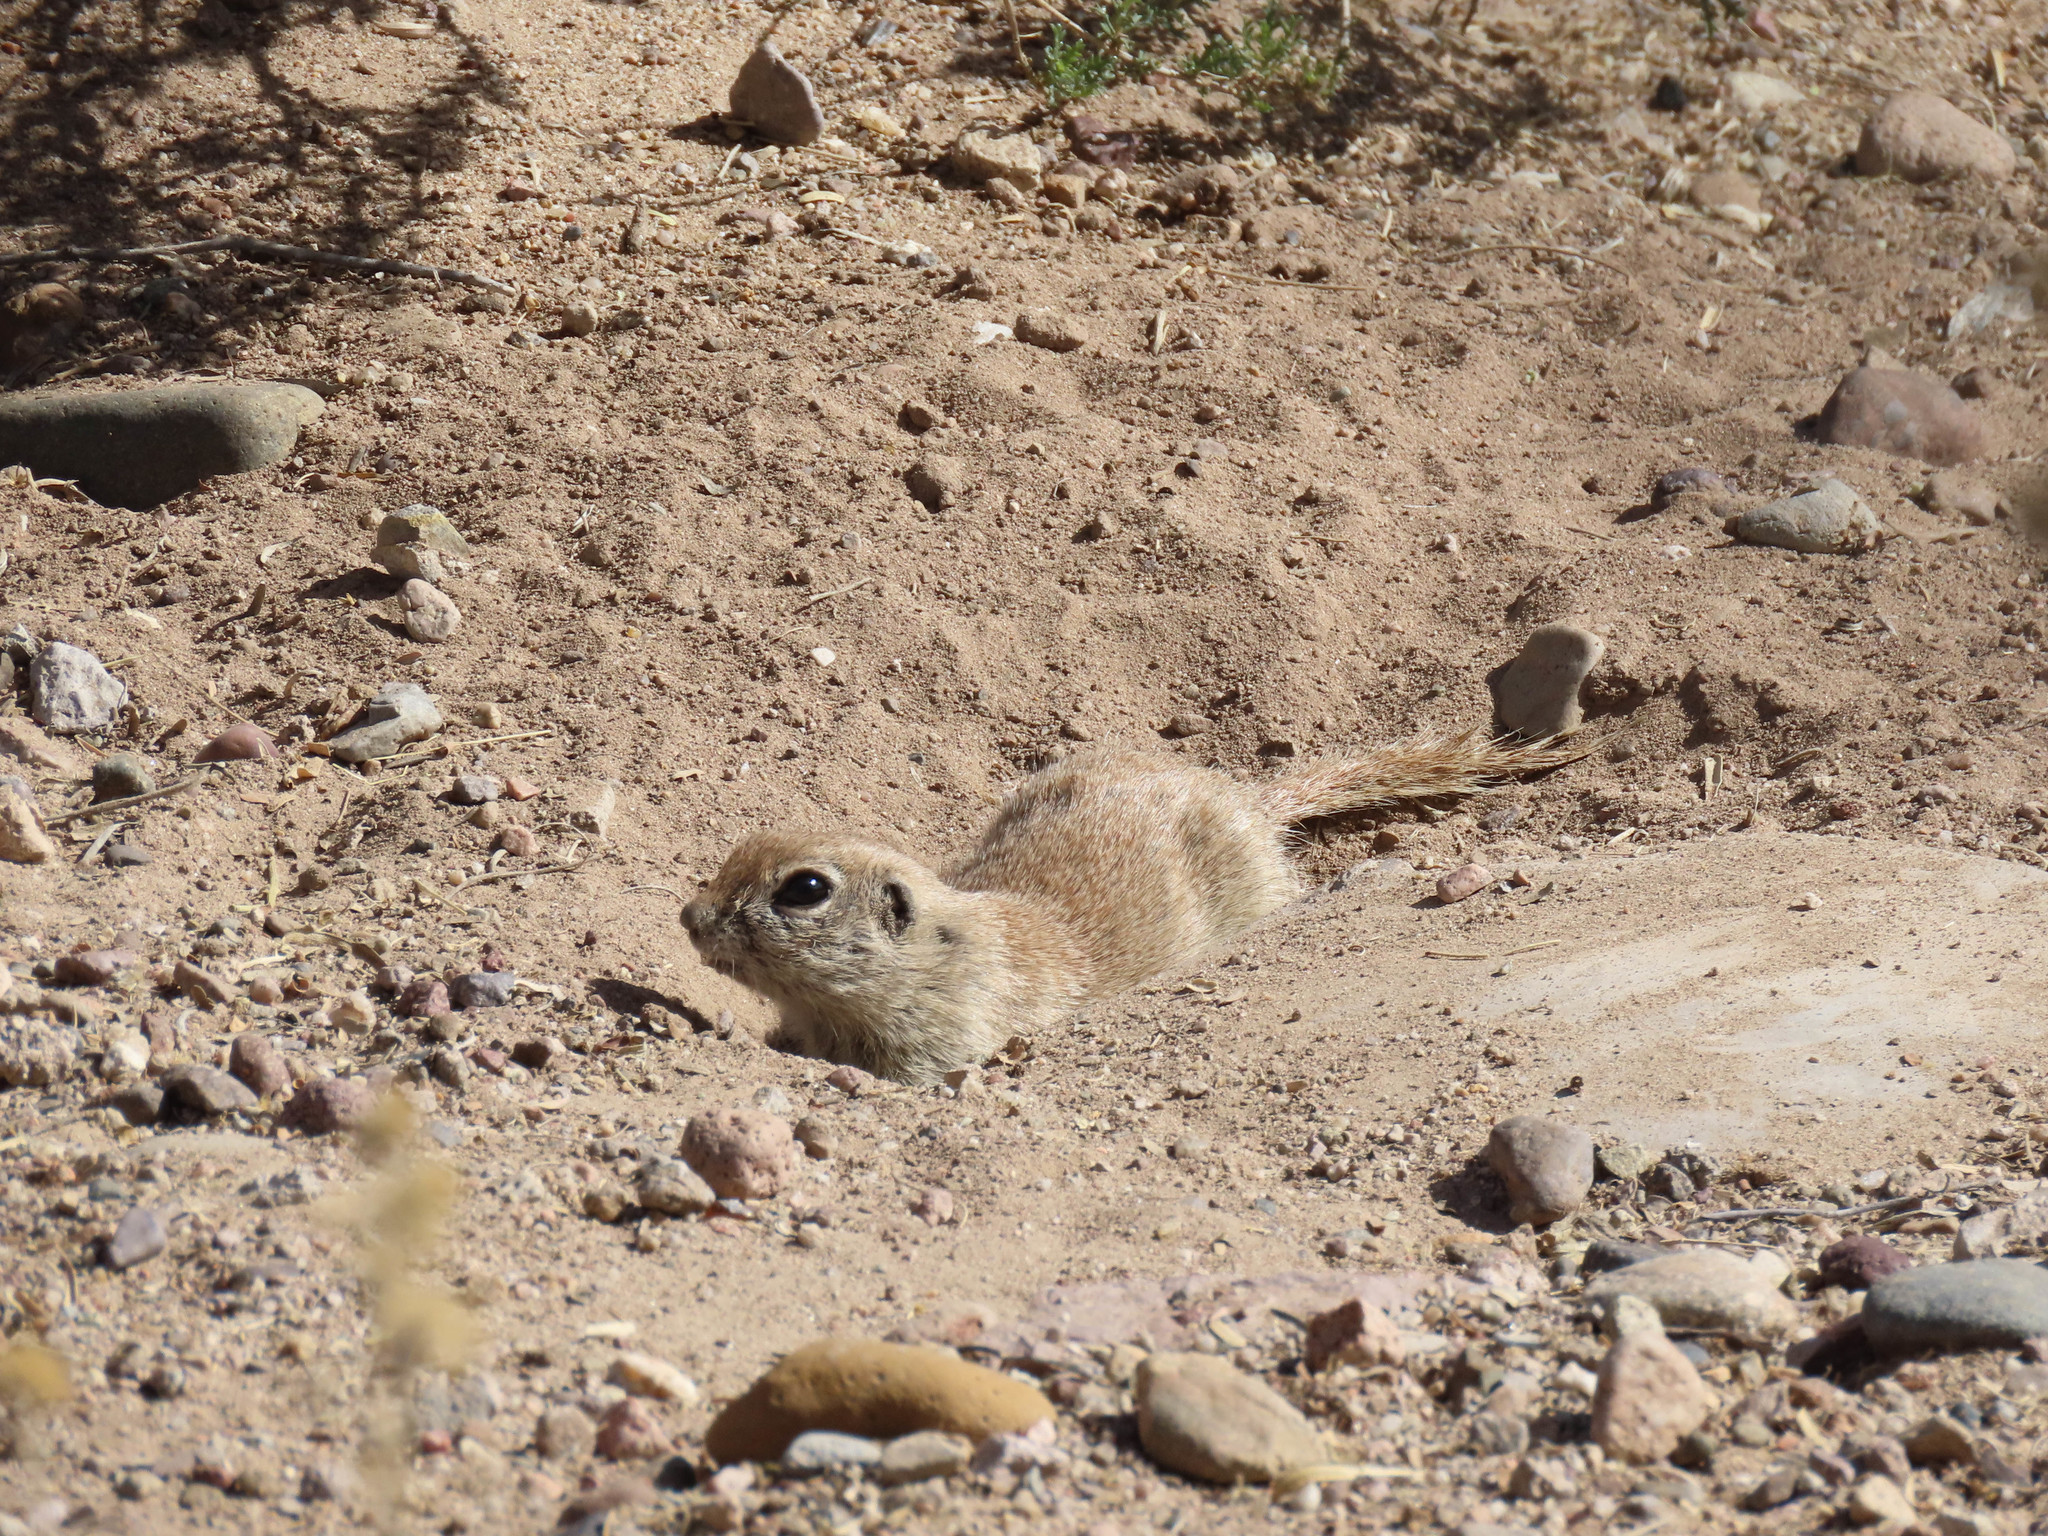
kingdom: Animalia
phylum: Chordata
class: Mammalia
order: Rodentia
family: Sciuridae
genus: Xerospermophilus
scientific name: Xerospermophilus tereticaudus
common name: Round-tailed ground squirrel
